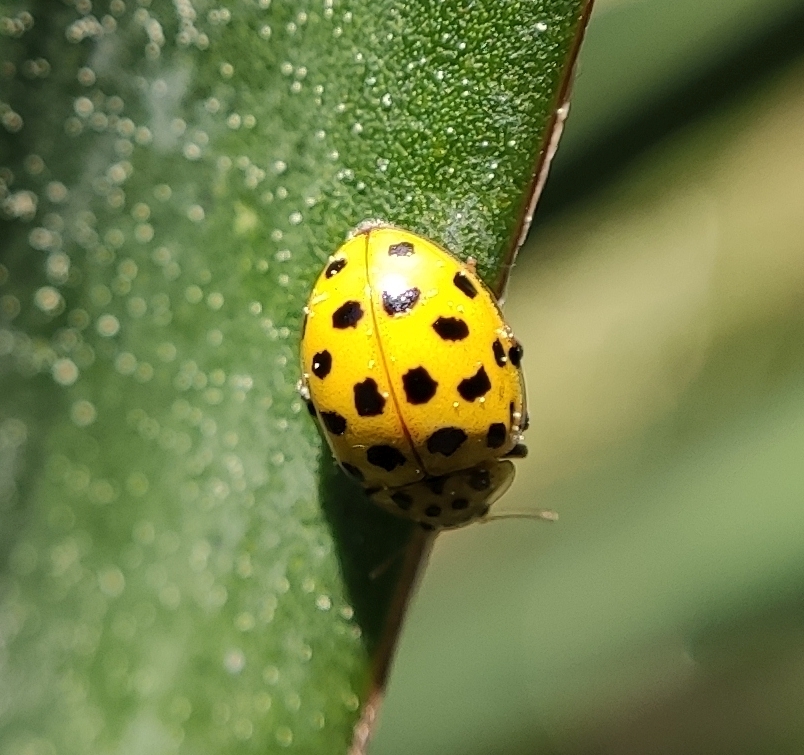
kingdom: Animalia
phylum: Arthropoda
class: Insecta
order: Coleoptera
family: Coccinellidae
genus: Psyllobora
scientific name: Psyllobora vigintiduopunctata
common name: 22-spot ladybird
